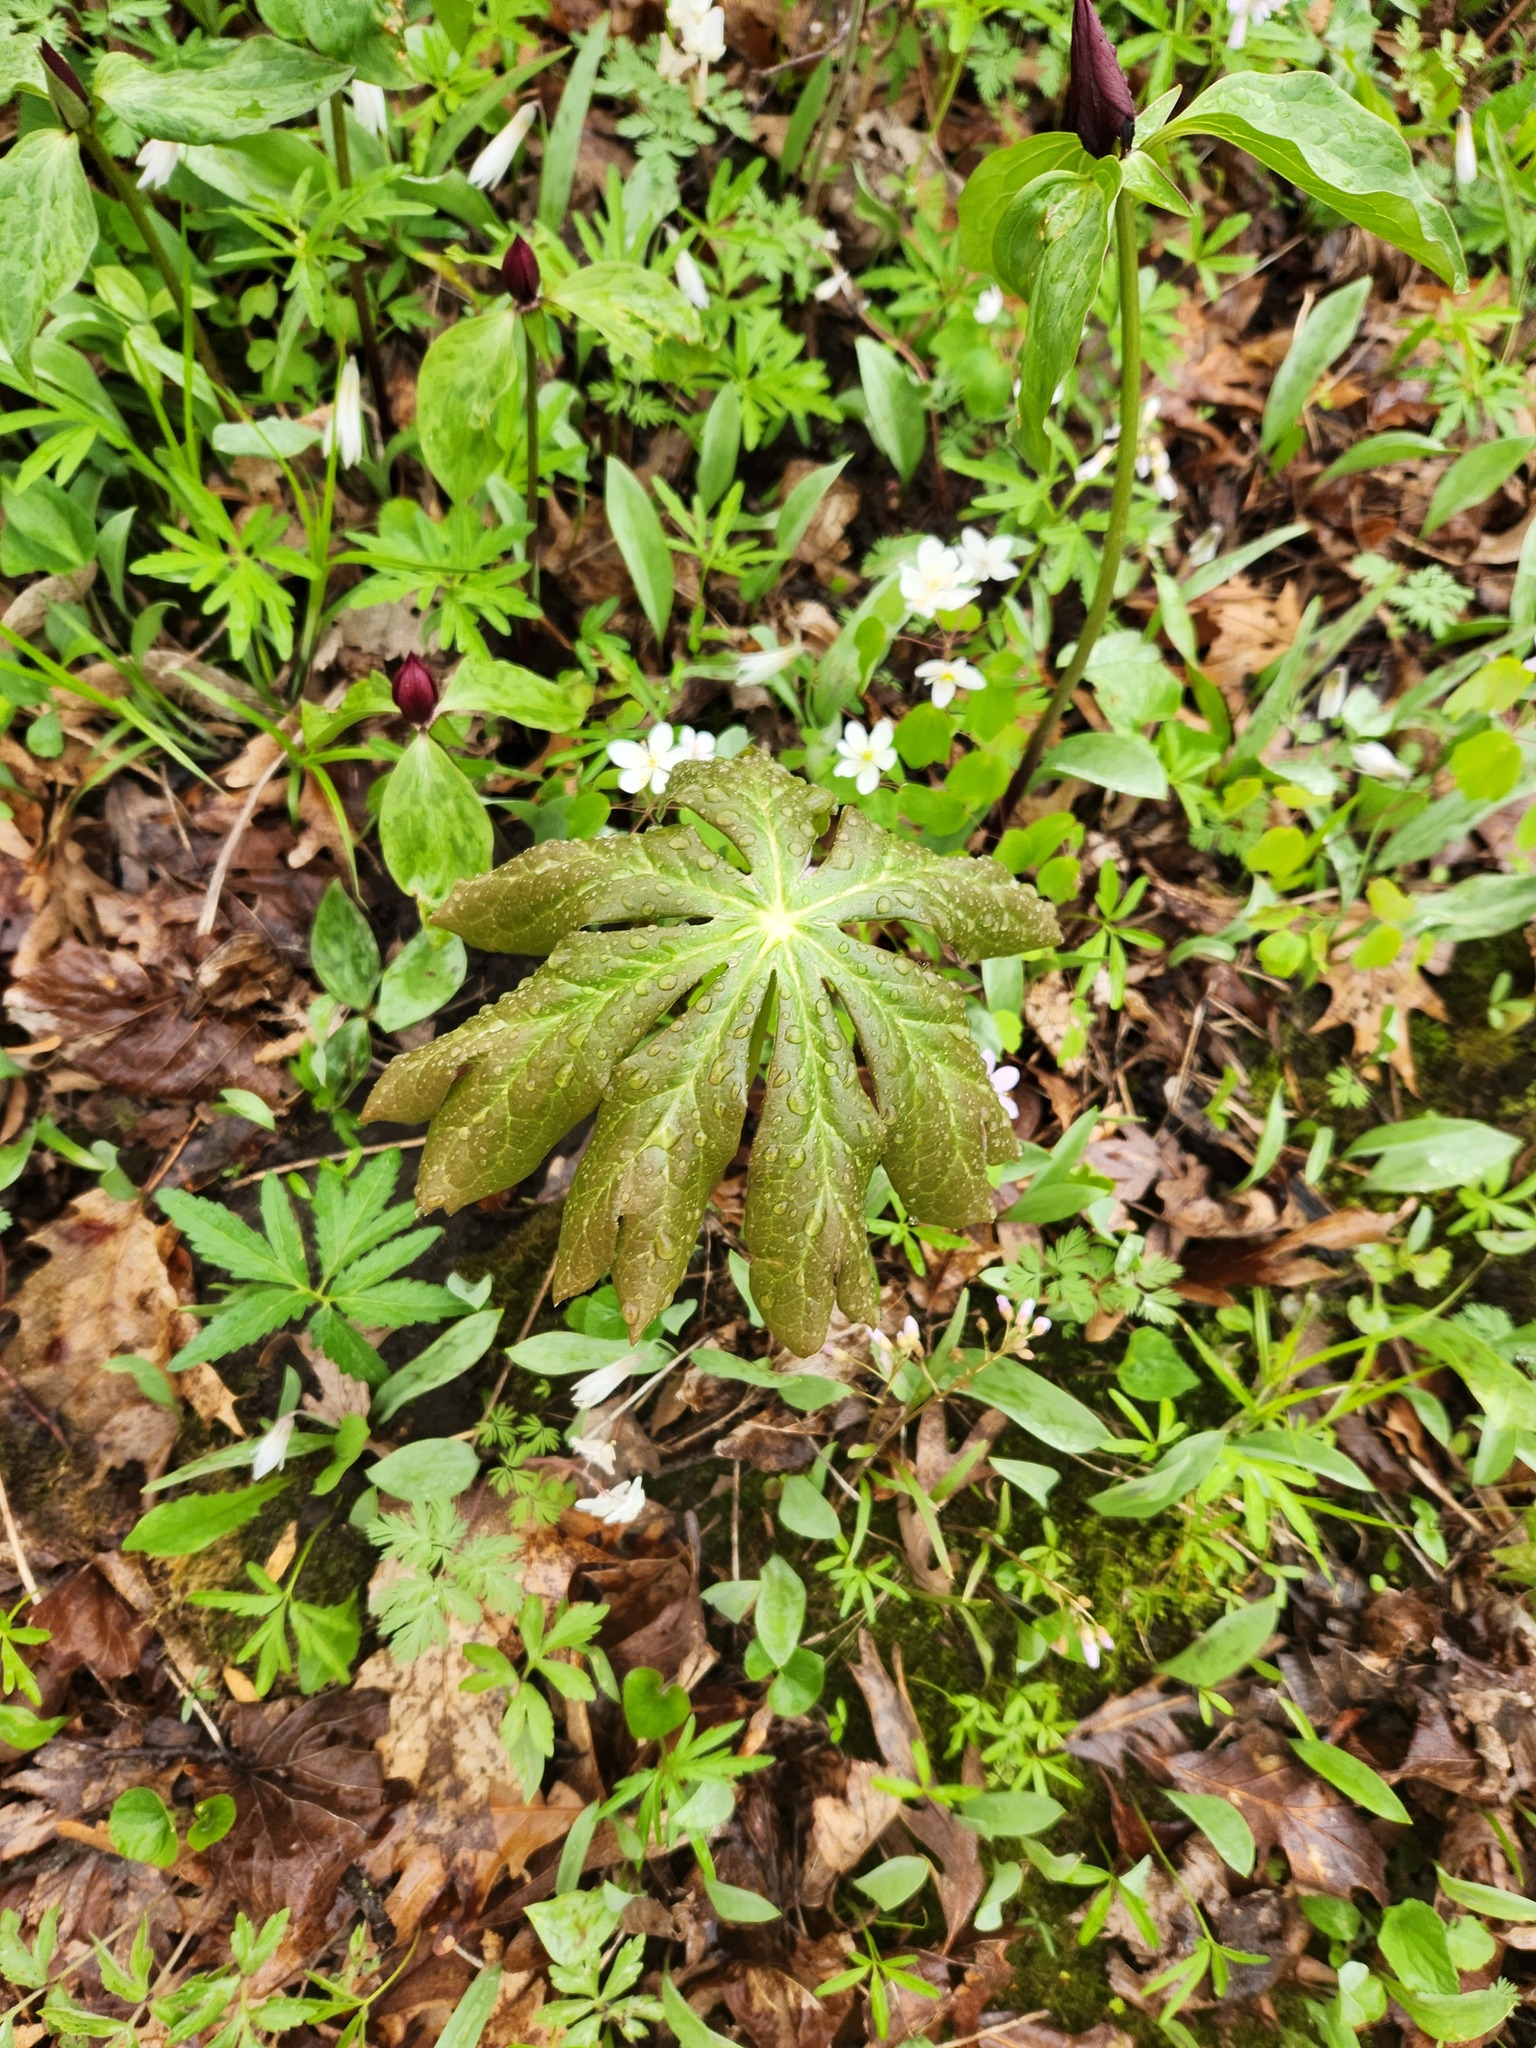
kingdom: Plantae
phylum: Tracheophyta
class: Magnoliopsida
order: Ranunculales
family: Berberidaceae
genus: Podophyllum
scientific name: Podophyllum peltatum
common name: Wild mandrake
